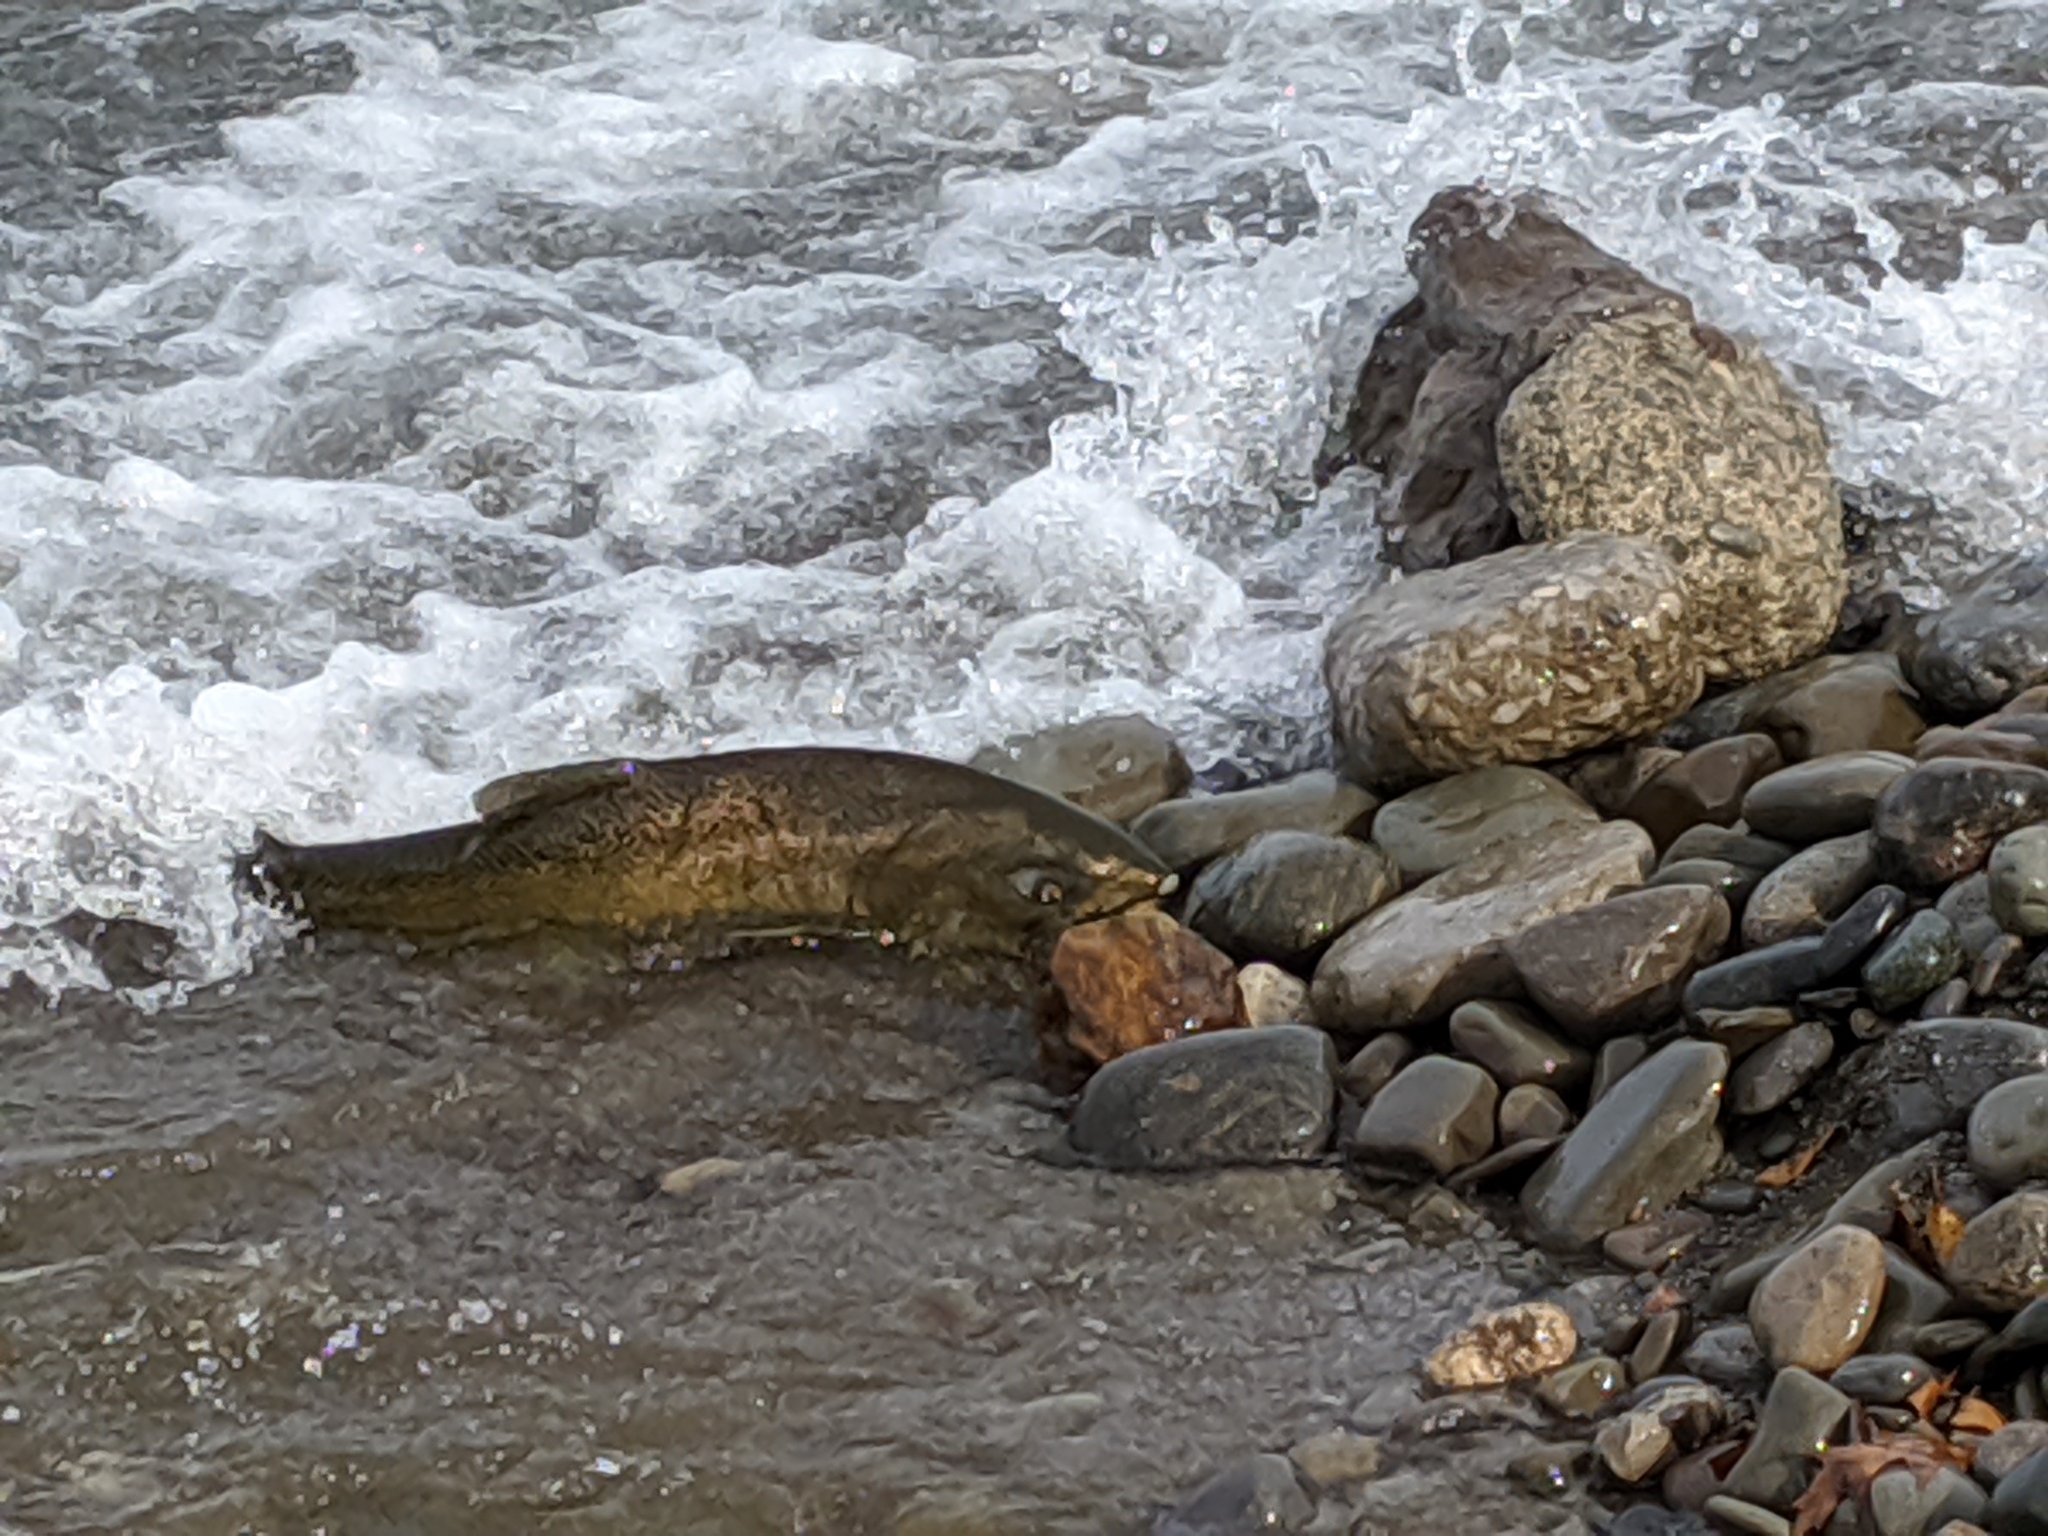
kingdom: Animalia
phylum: Chordata
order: Salmoniformes
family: Salmonidae
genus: Oncorhynchus
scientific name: Oncorhynchus tshawytscha
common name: Chinook salmon
